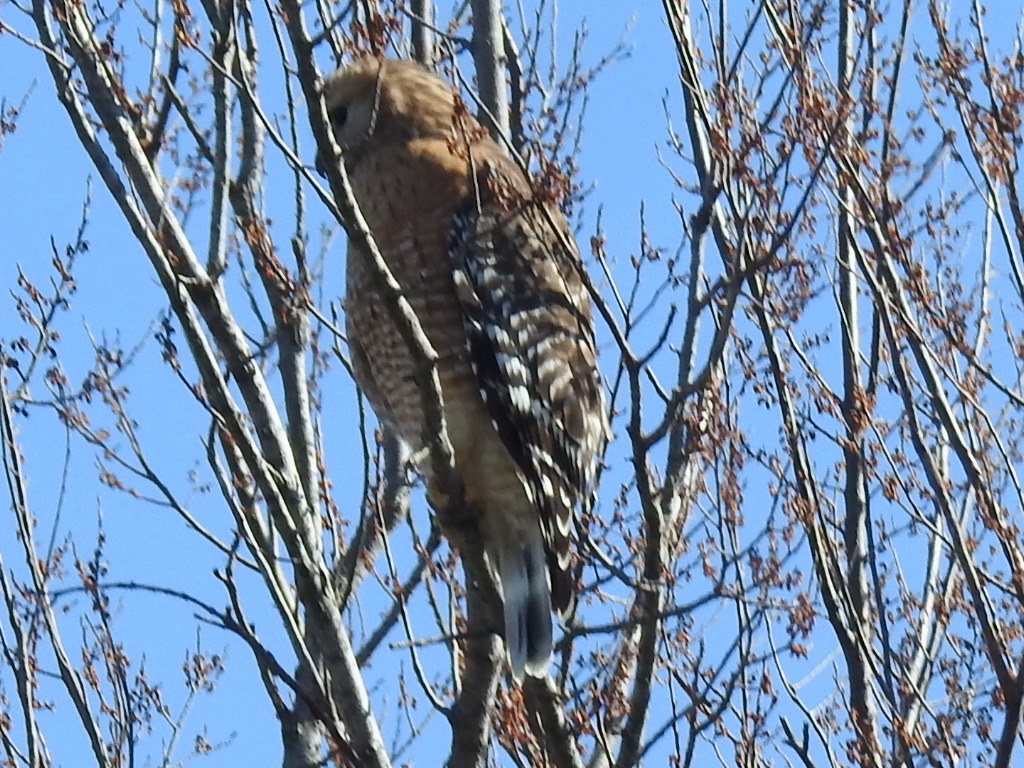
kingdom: Animalia
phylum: Chordata
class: Aves
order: Accipitriformes
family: Accipitridae
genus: Buteo
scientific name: Buteo lineatus
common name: Red-shouldered hawk
